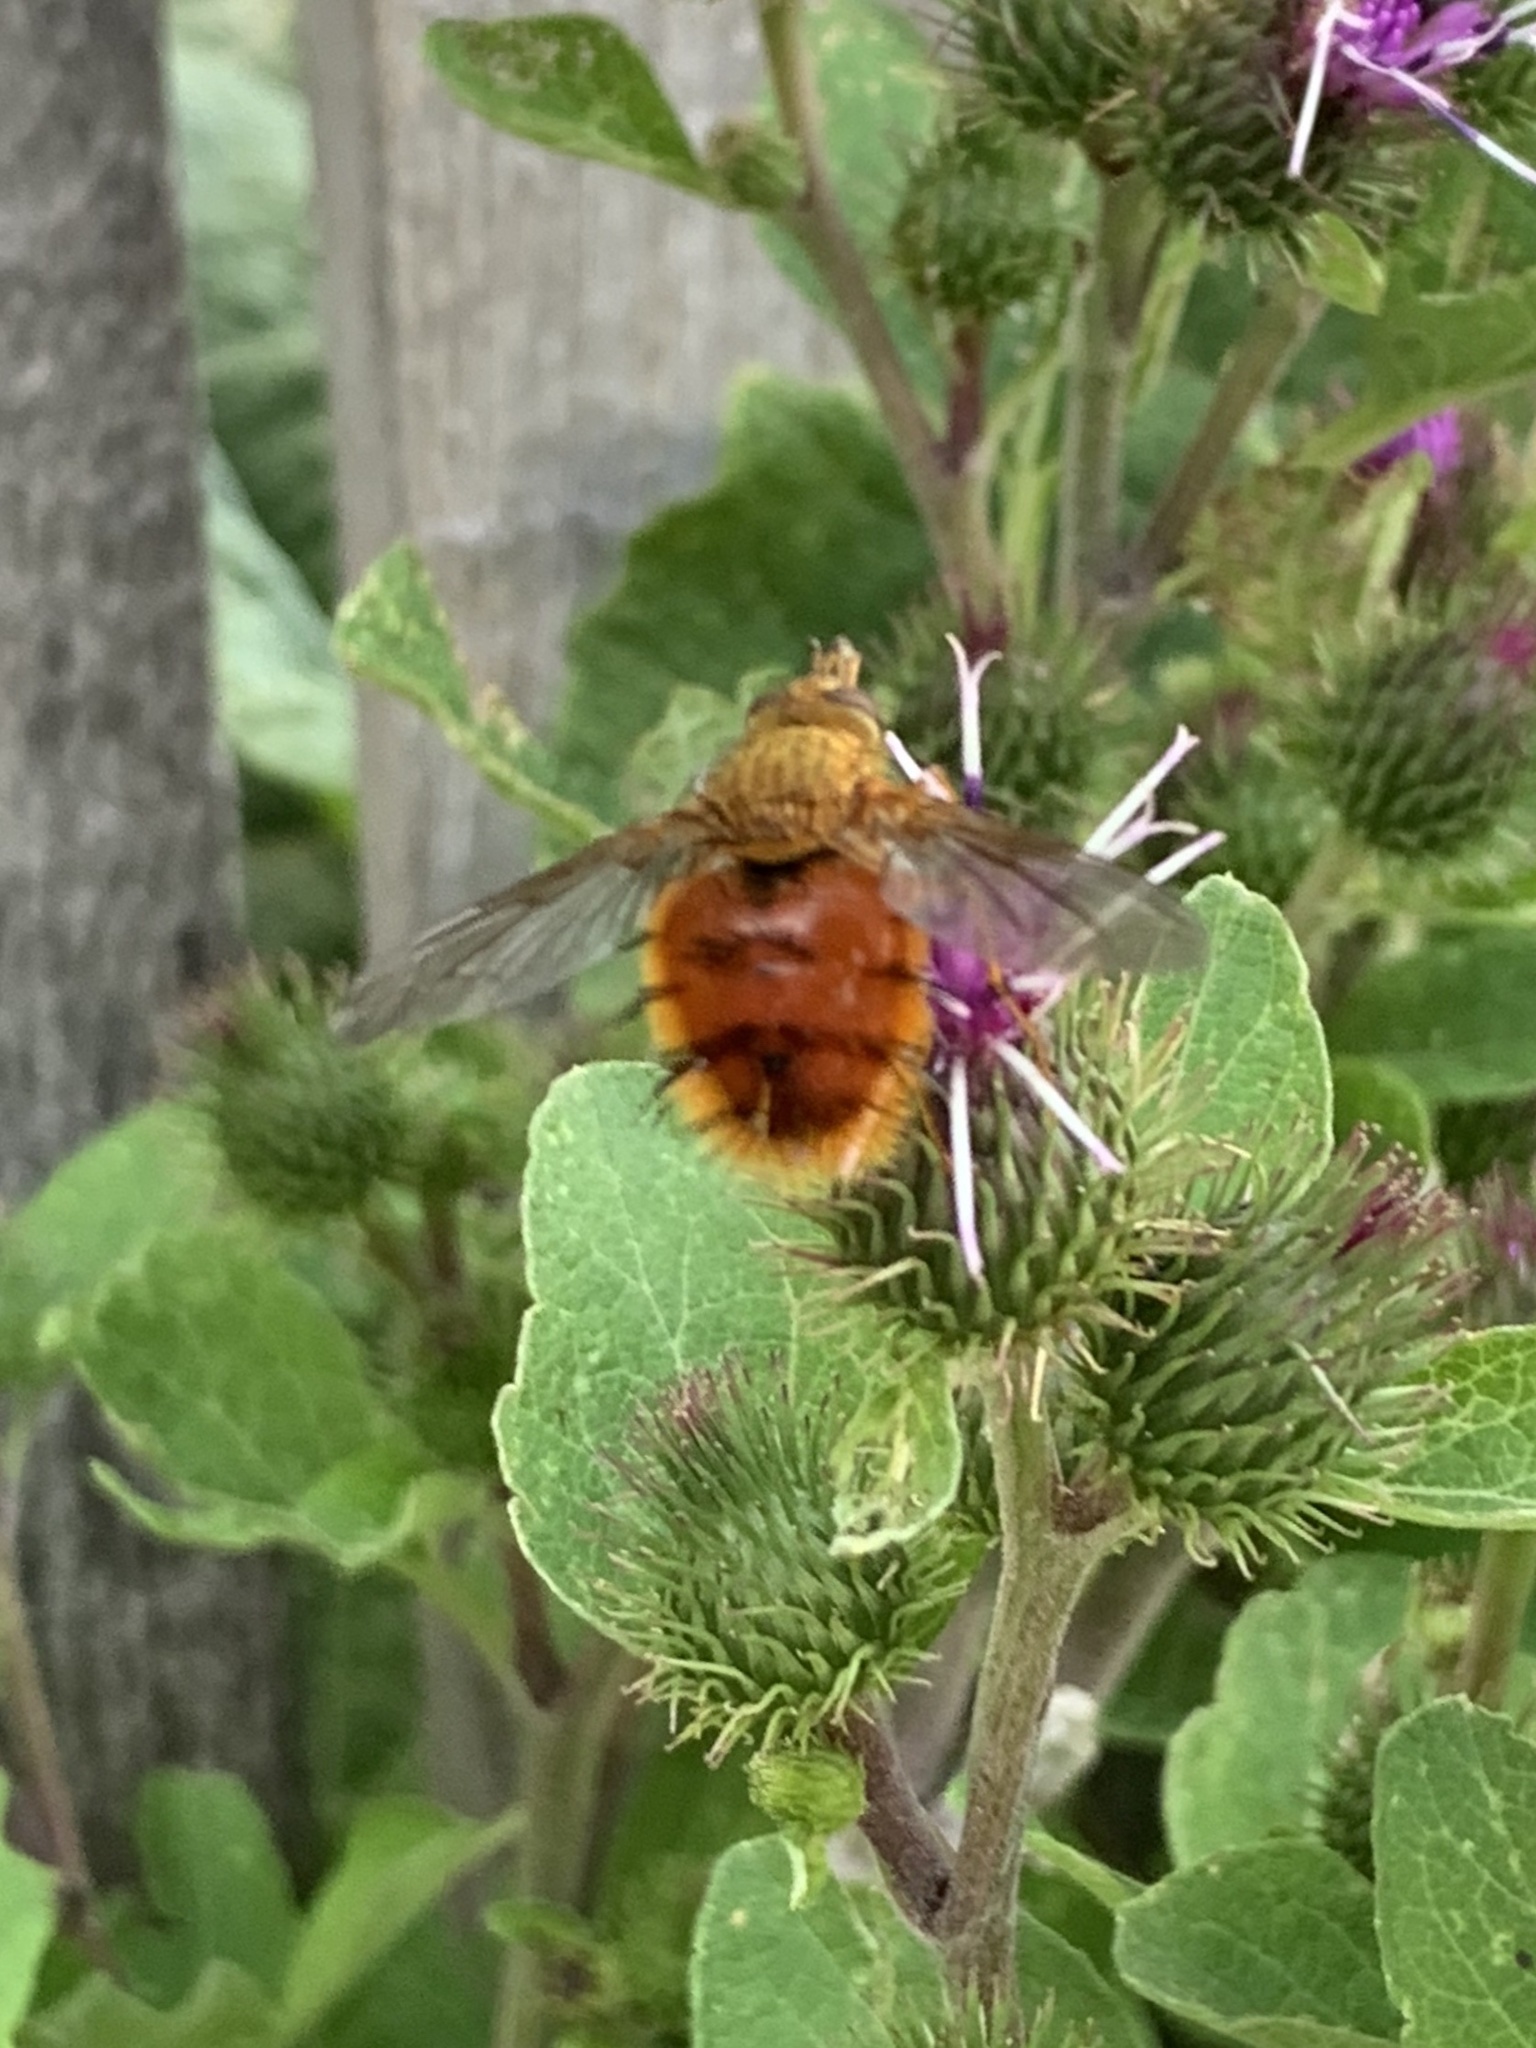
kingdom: Animalia
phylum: Arthropoda
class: Insecta
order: Diptera
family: Tachinidae
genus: Adejeania
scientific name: Adejeania vexatrix
